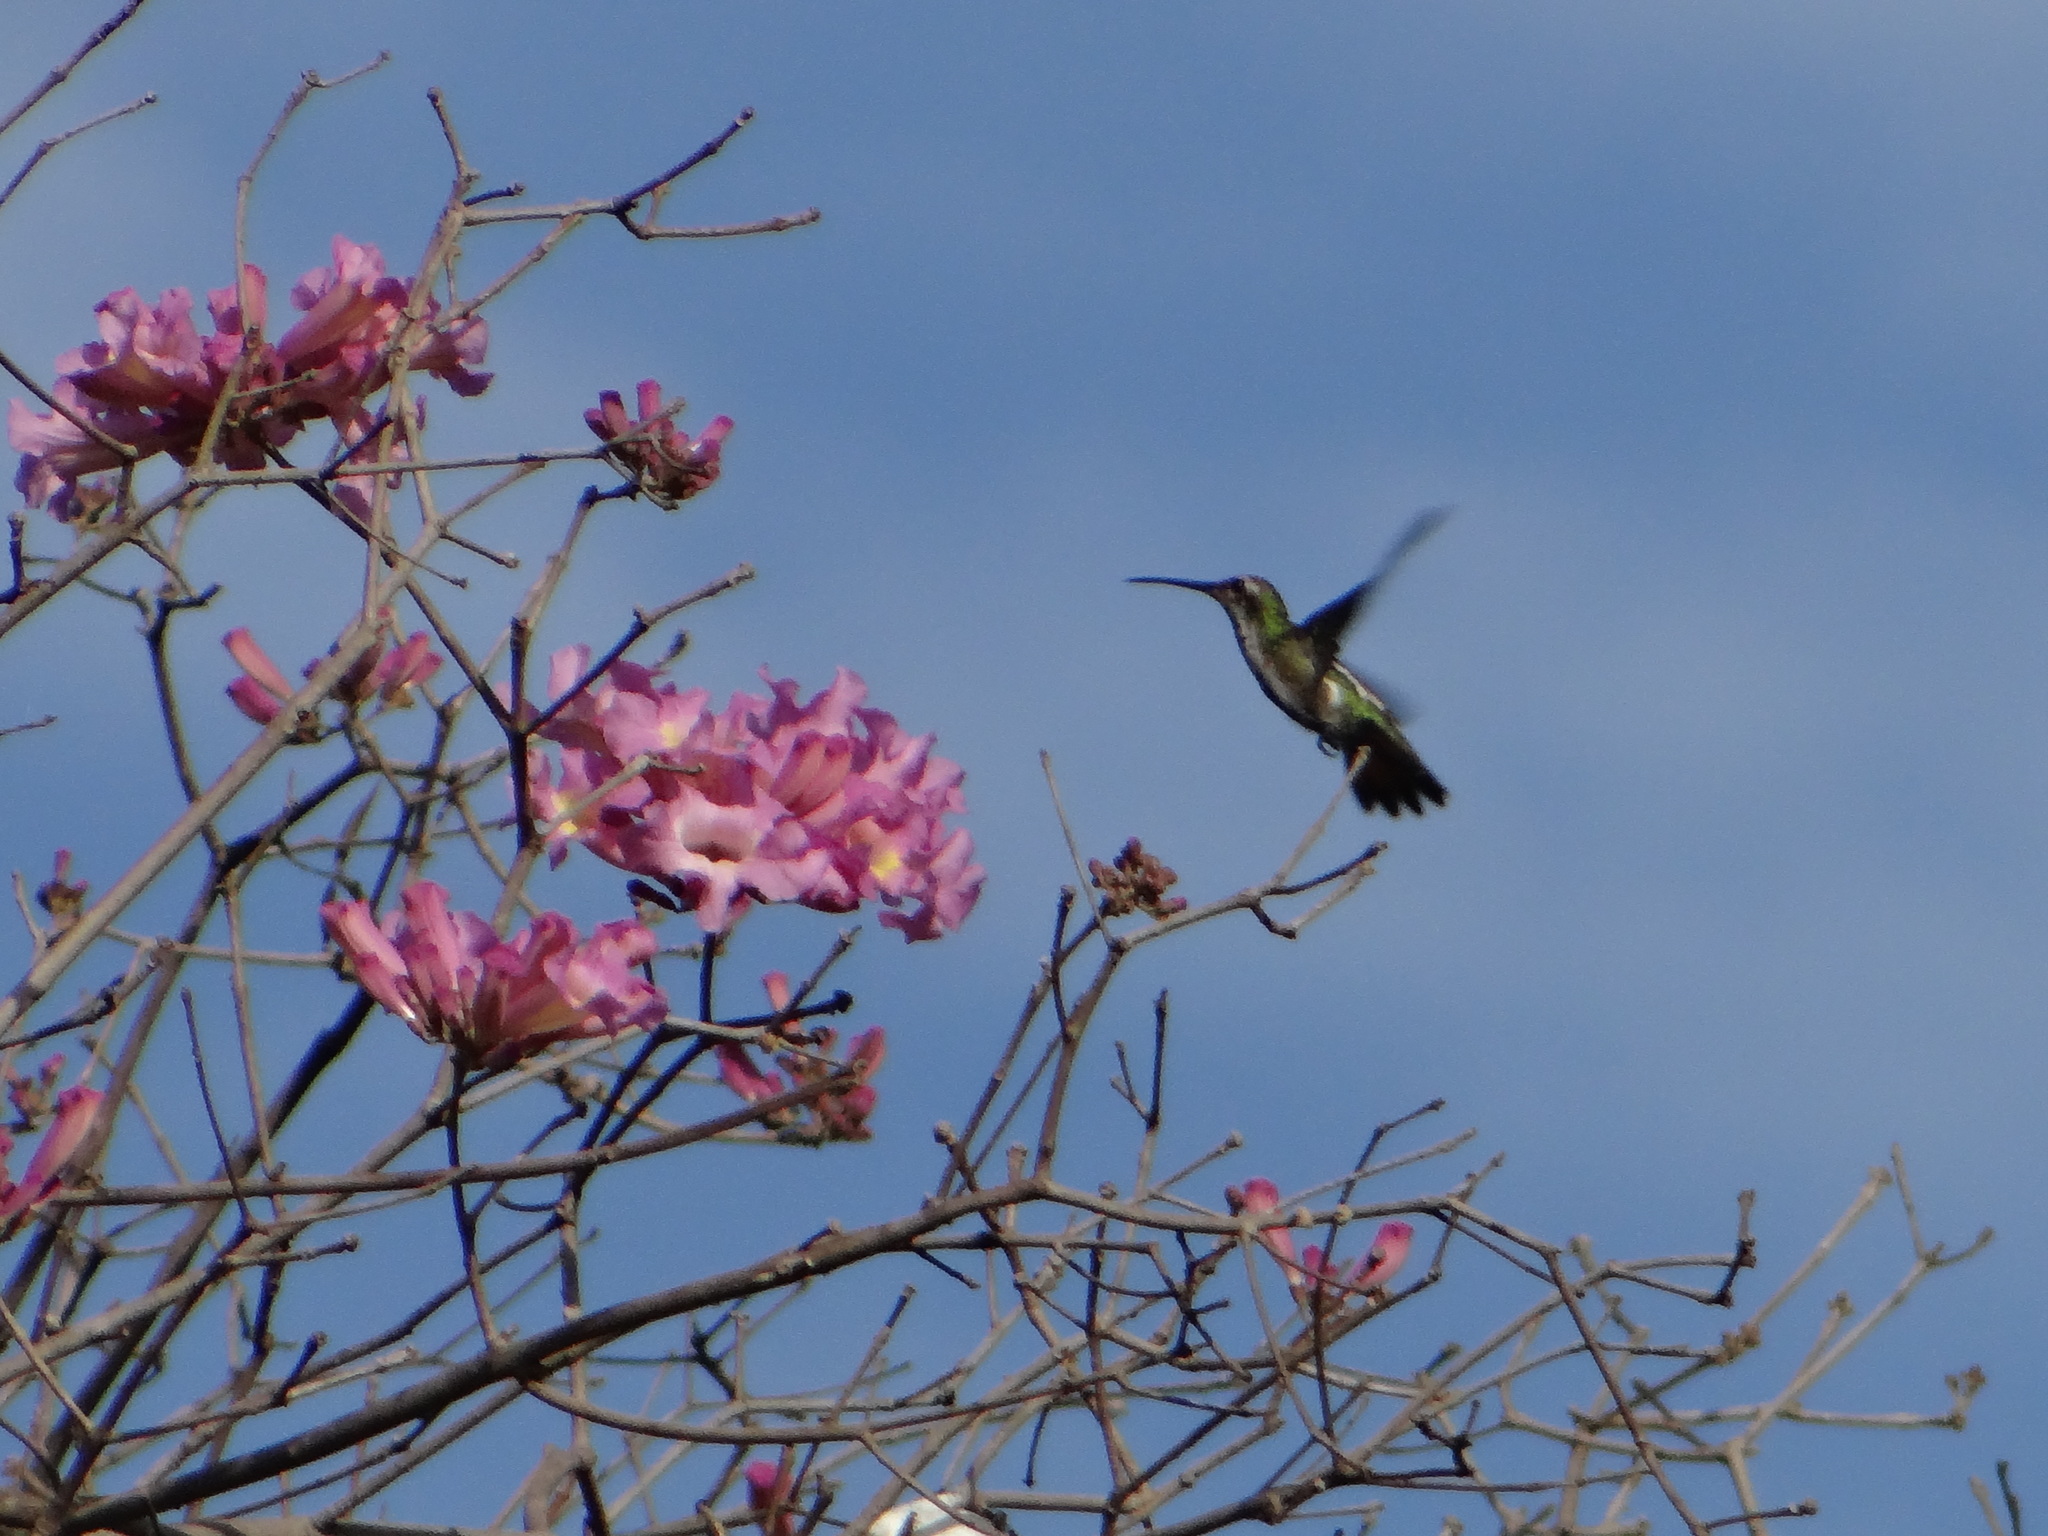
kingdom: Animalia
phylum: Chordata
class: Aves
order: Apodiformes
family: Trochilidae
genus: Anthracothorax
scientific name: Anthracothorax nigricollis
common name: Black-throated mango
